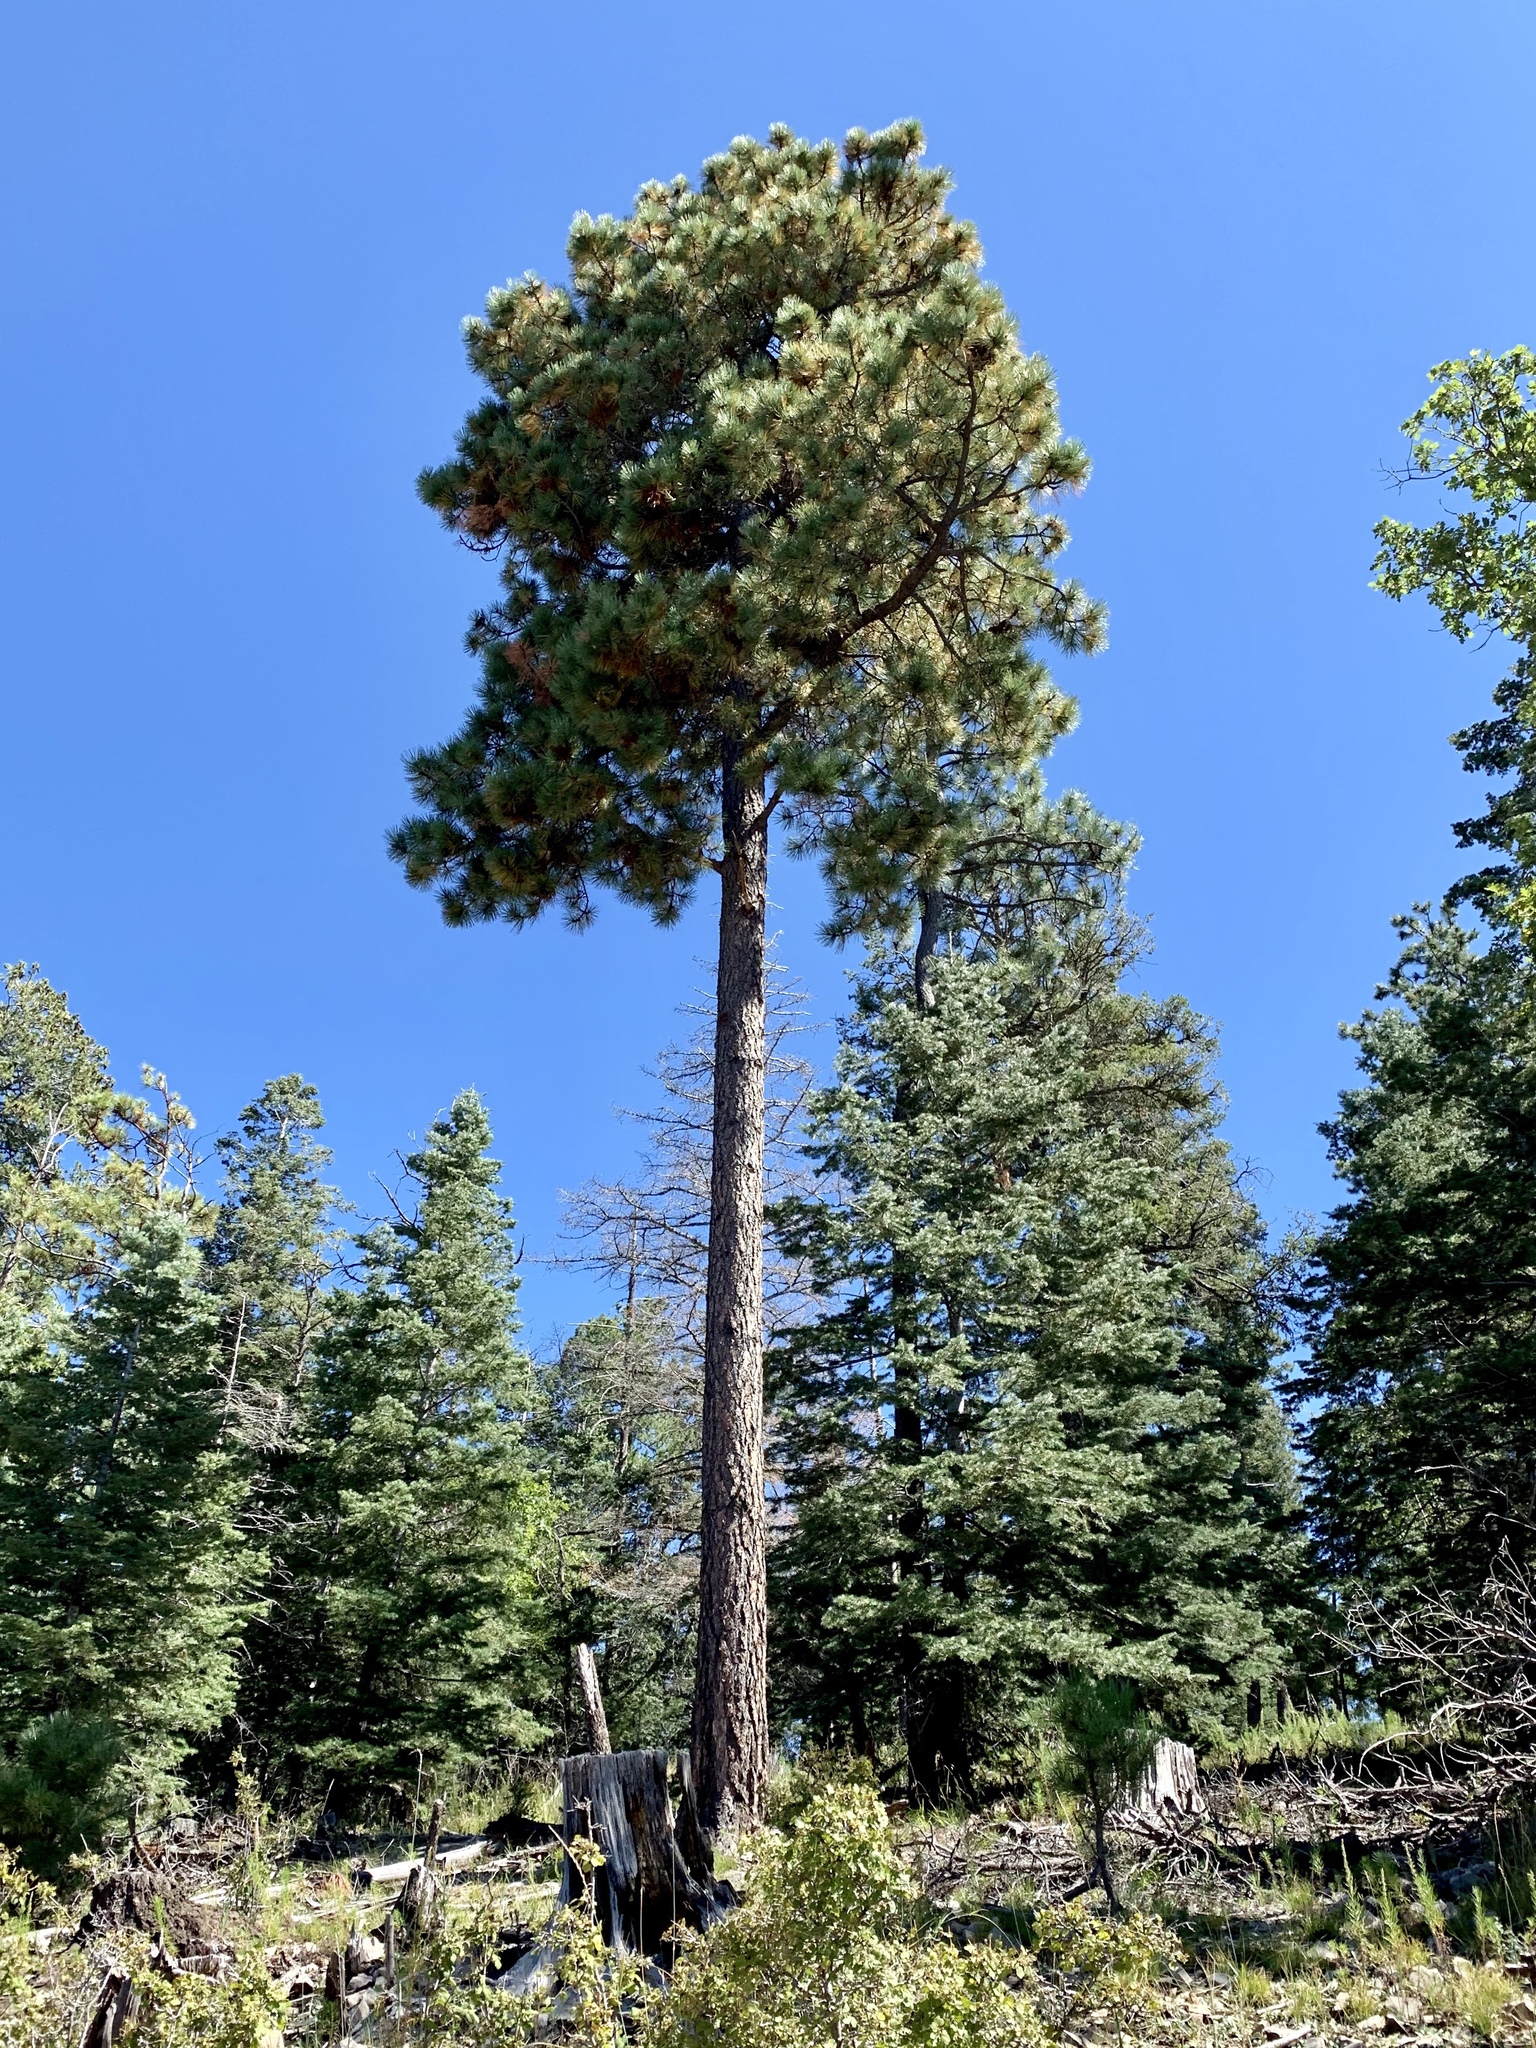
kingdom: Plantae
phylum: Tracheophyta
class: Pinopsida
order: Pinales
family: Pinaceae
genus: Pinus
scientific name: Pinus ponderosa
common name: Western yellow-pine
